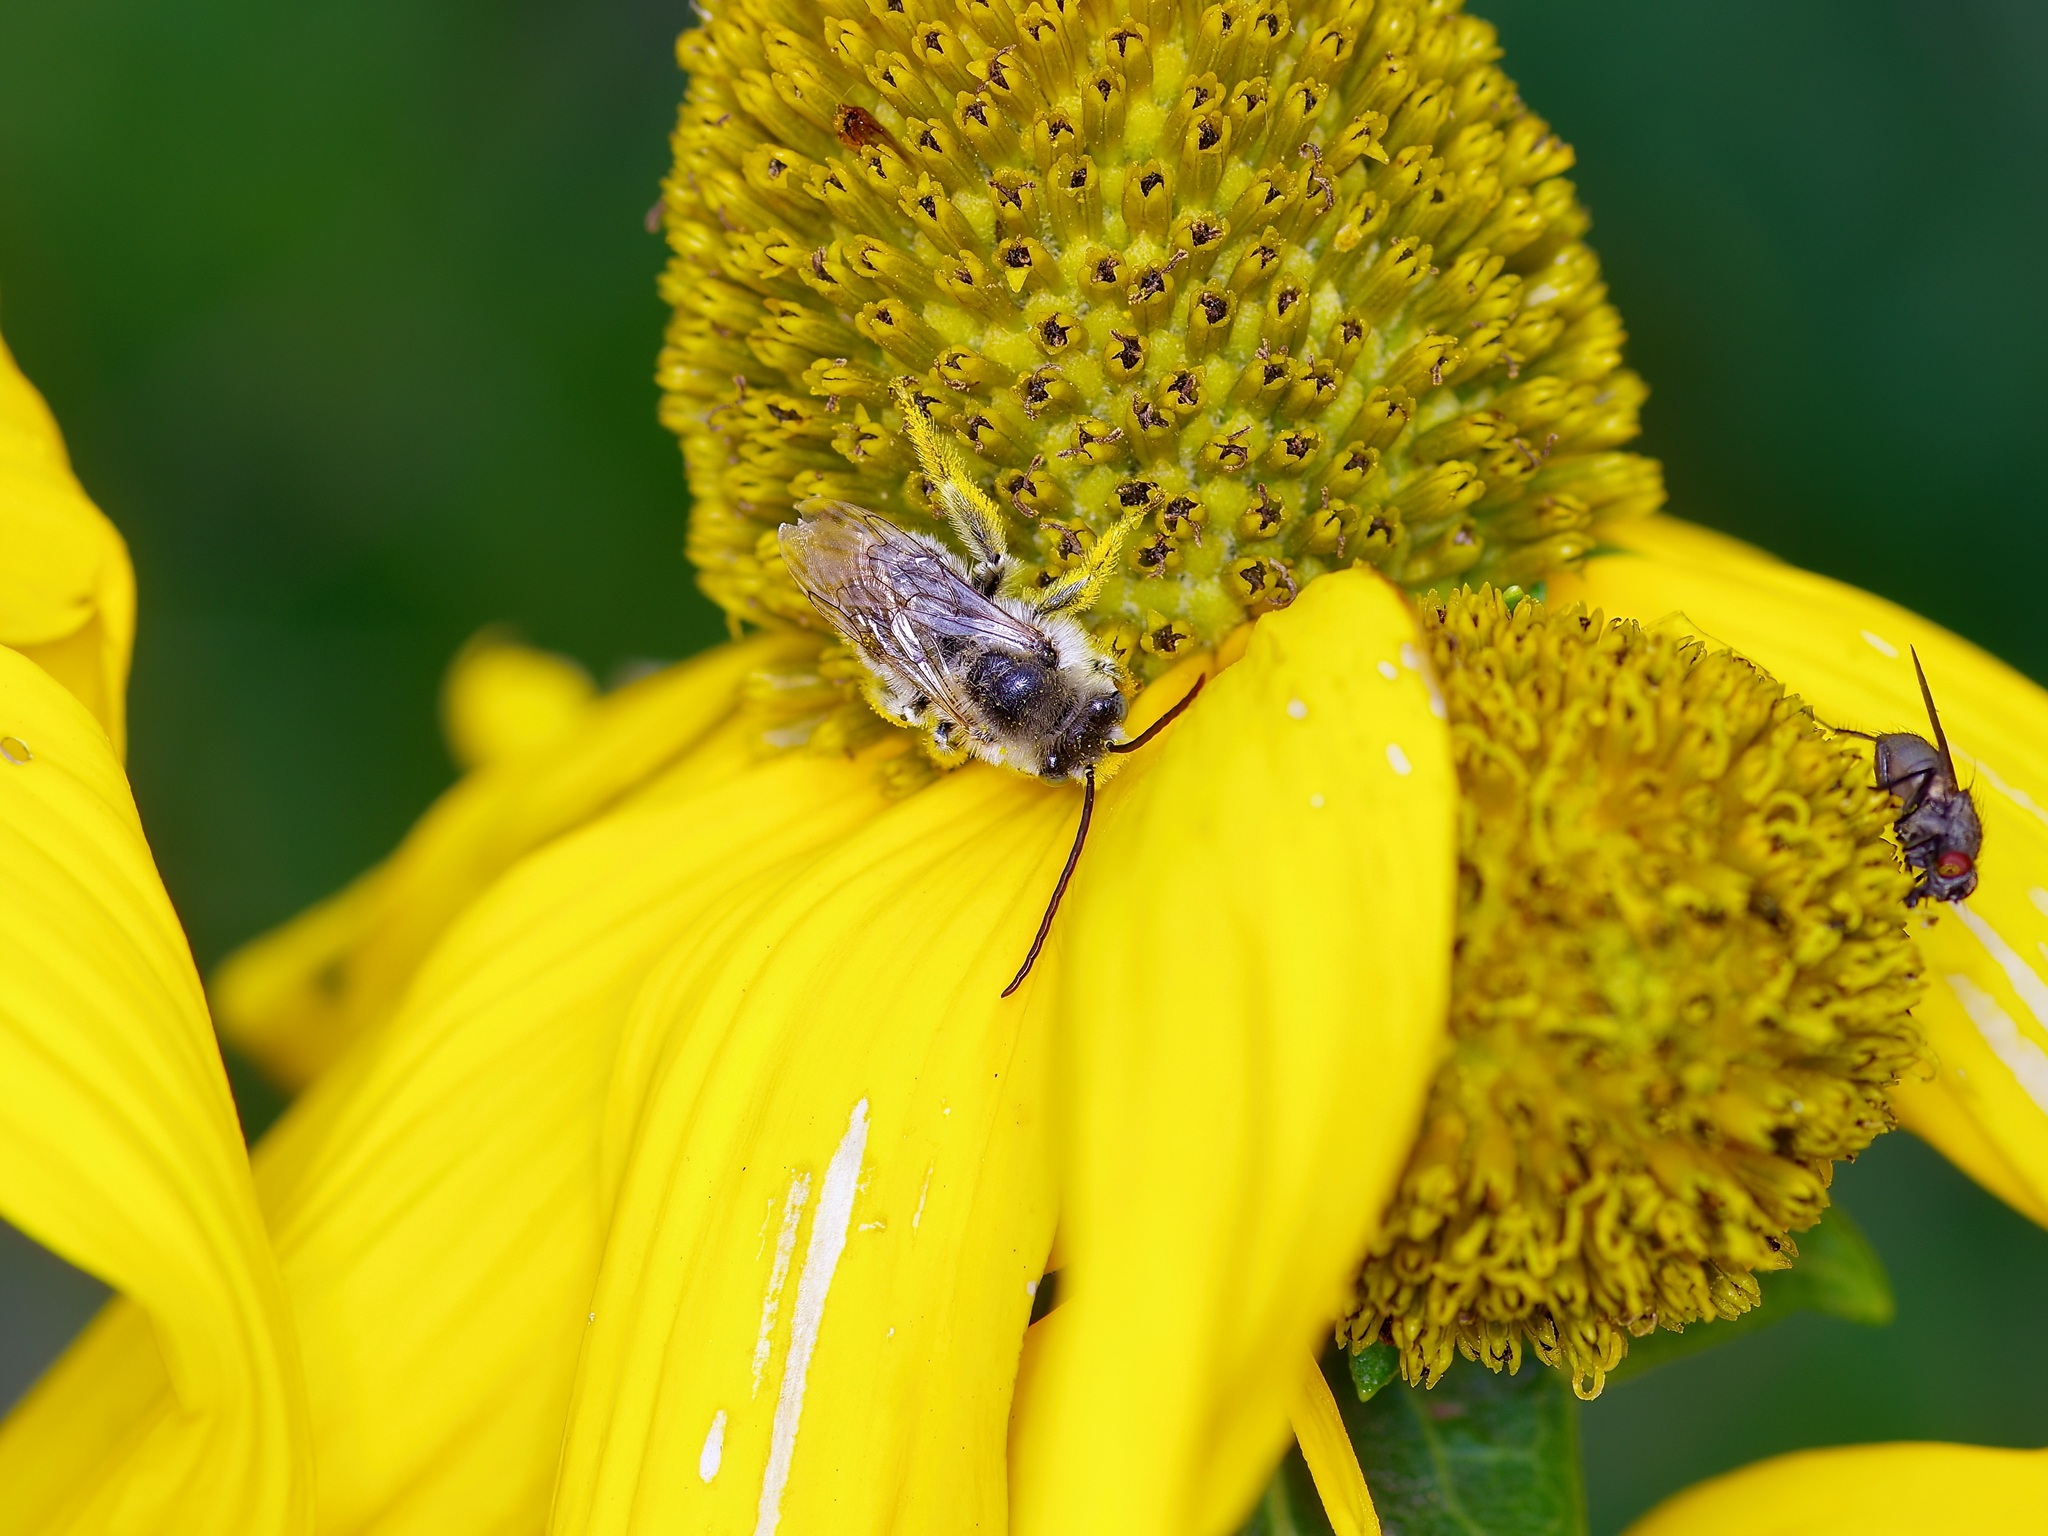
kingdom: Animalia
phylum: Arthropoda
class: Insecta
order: Hymenoptera
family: Apidae
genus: Melissodes
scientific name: Melissodes
